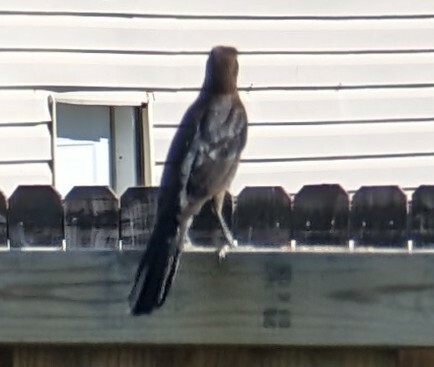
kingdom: Animalia
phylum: Chordata
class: Aves
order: Passeriformes
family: Icteridae
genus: Quiscalus
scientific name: Quiscalus mexicanus
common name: Great-tailed grackle
